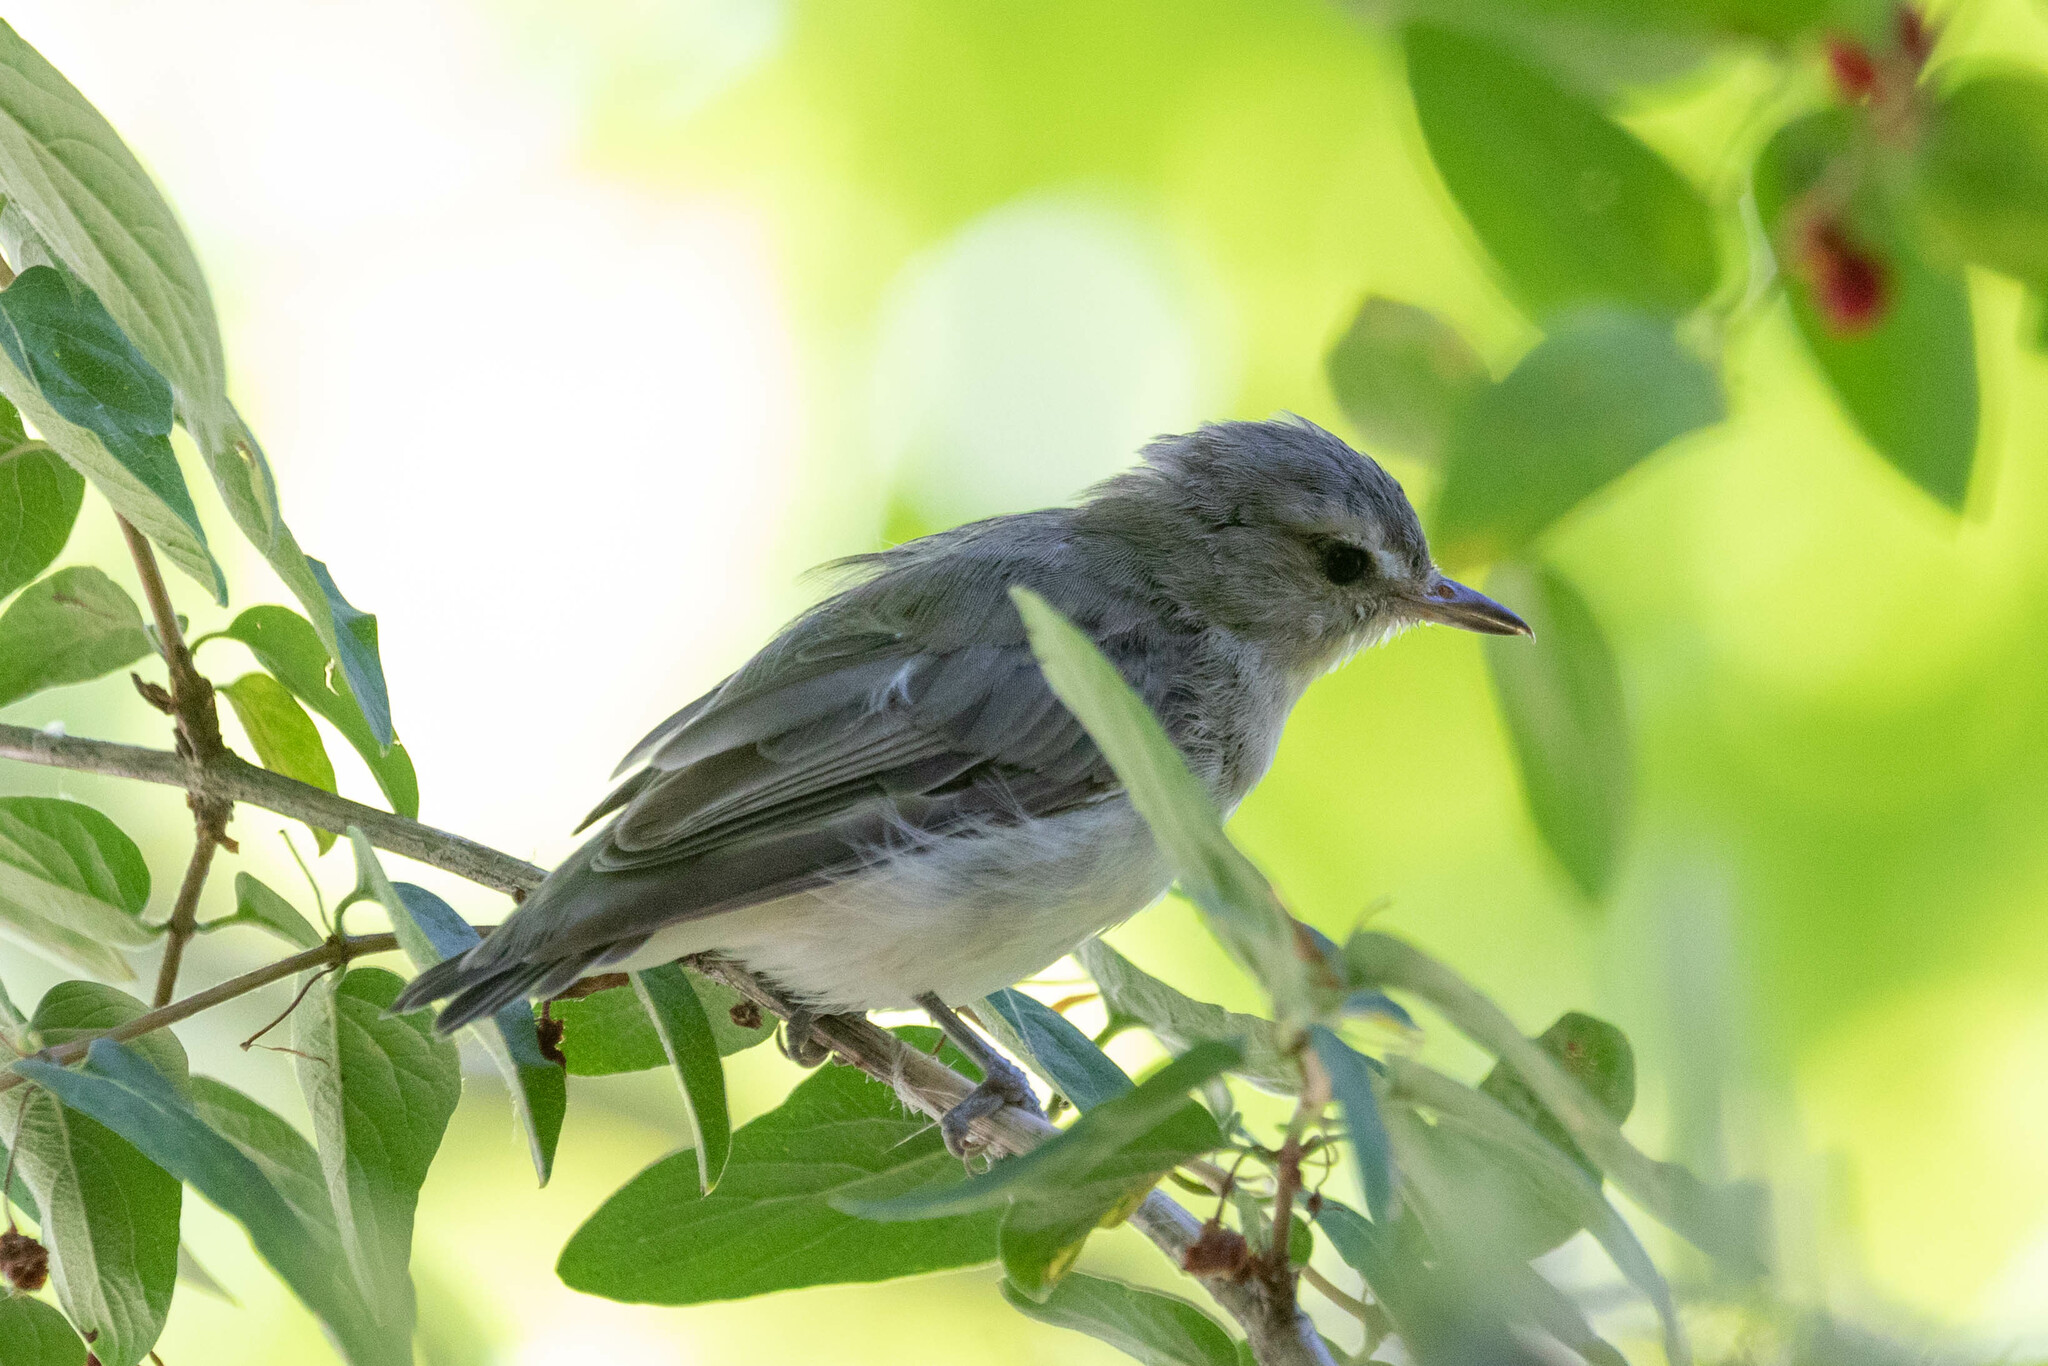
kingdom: Animalia
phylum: Chordata
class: Aves
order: Passeriformes
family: Vireonidae
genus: Vireo
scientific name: Vireo gilvus
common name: Warbling vireo
